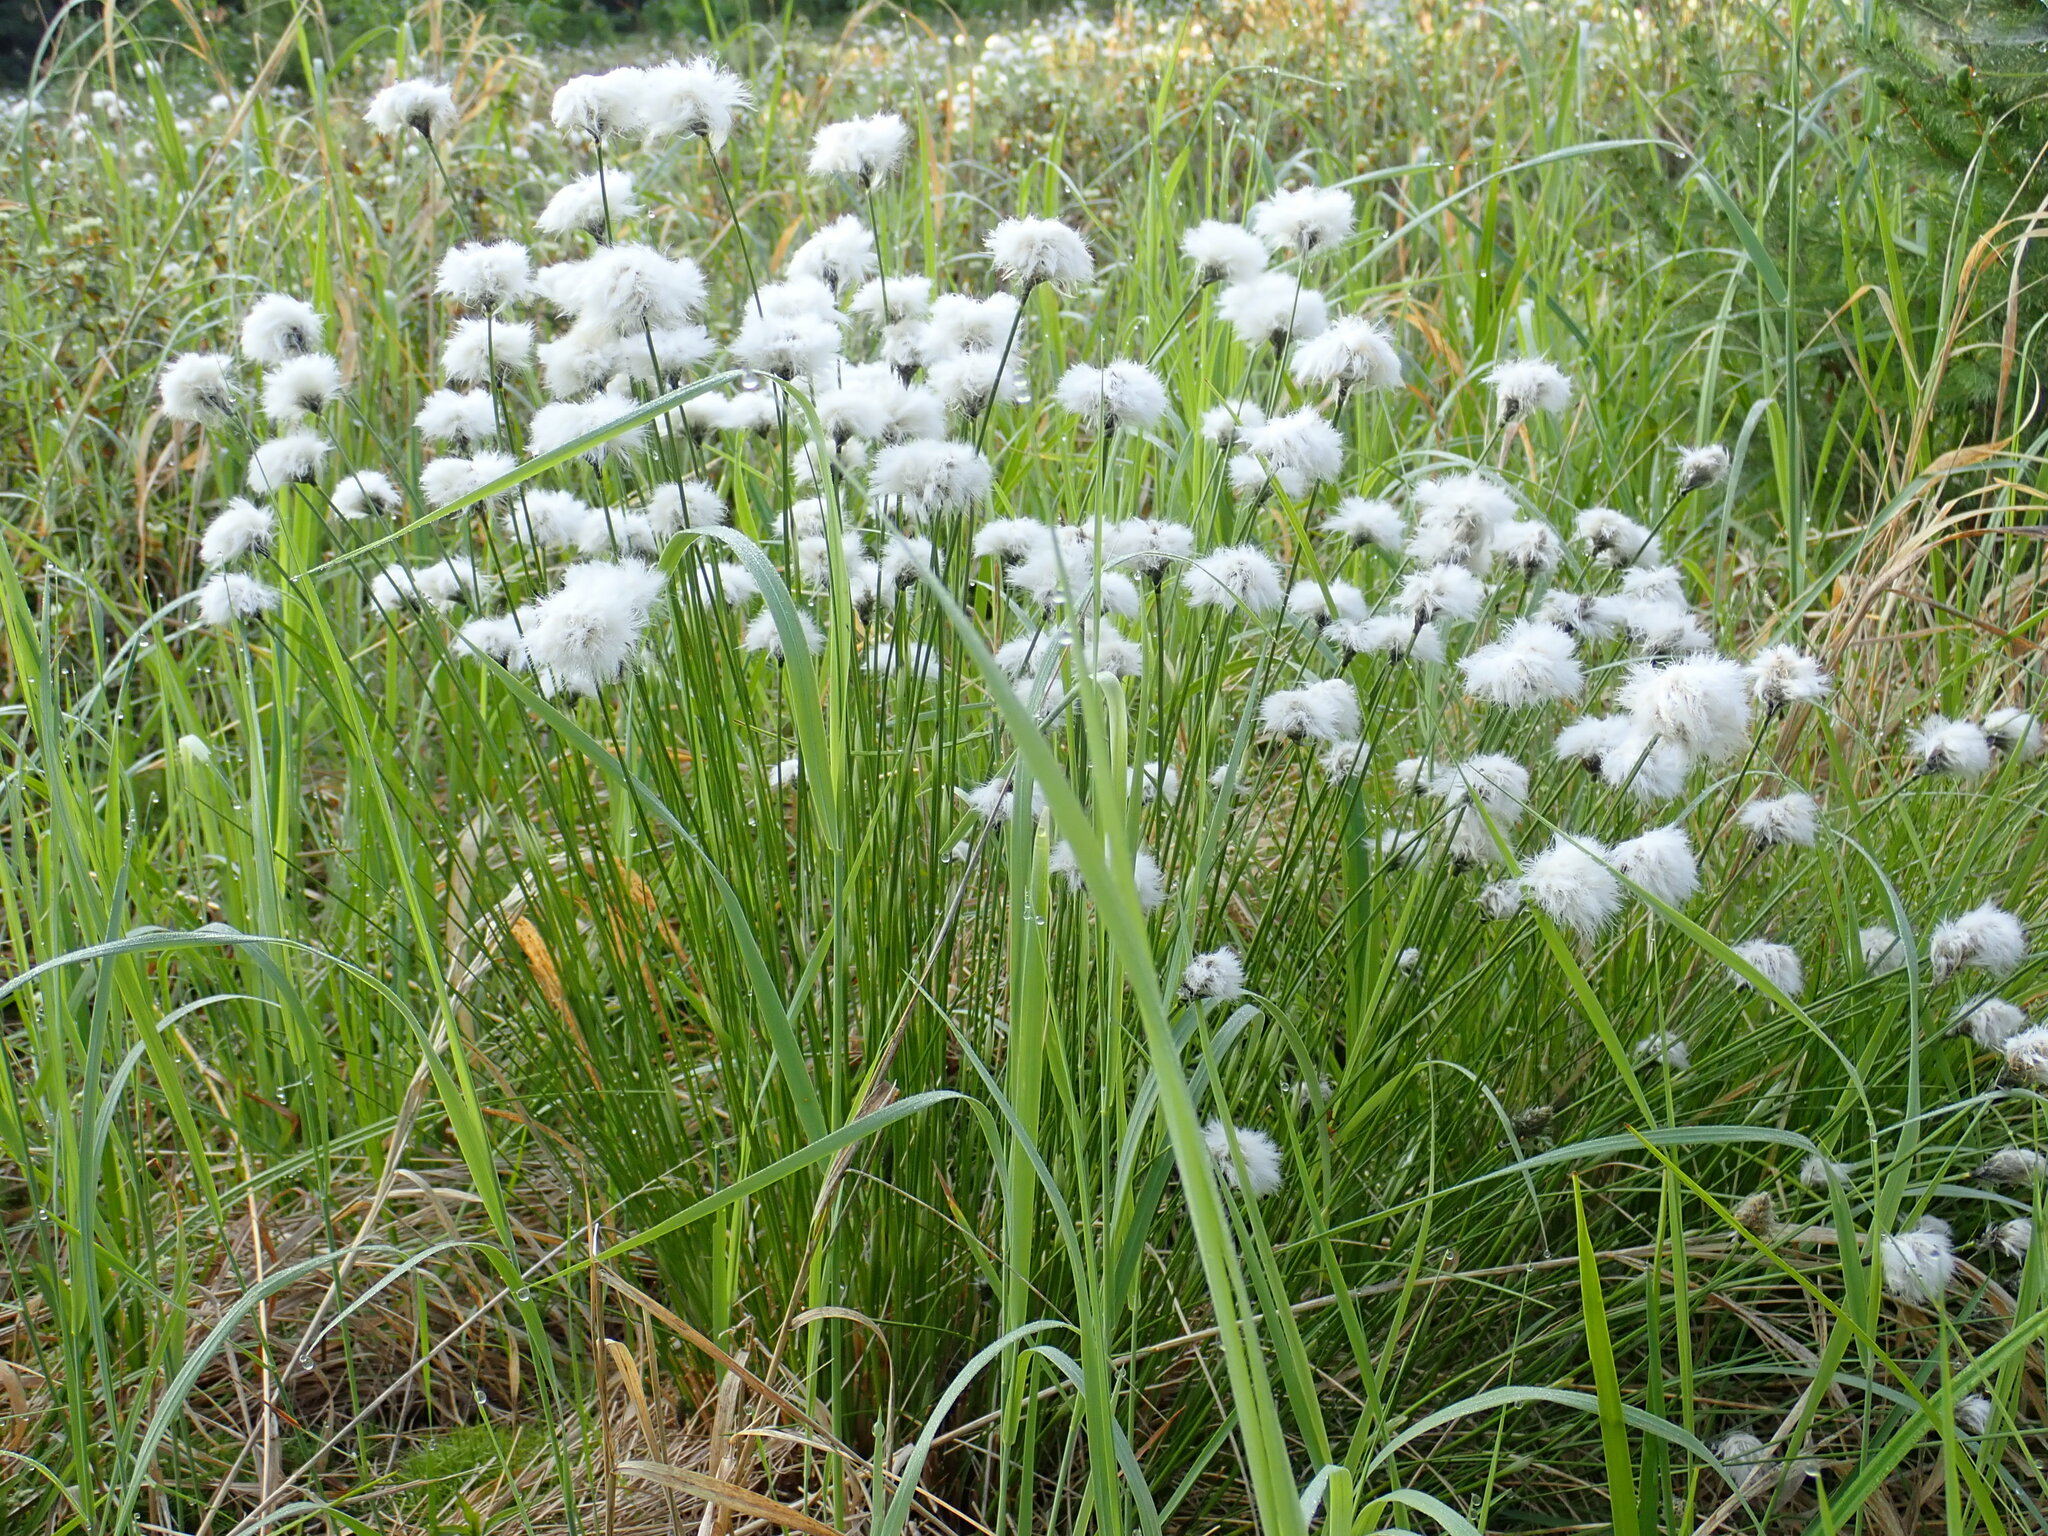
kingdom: Plantae
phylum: Tracheophyta
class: Liliopsida
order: Poales
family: Cyperaceae
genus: Eriophorum
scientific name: Eriophorum vaginatum
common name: Hare's-tail cottongrass
